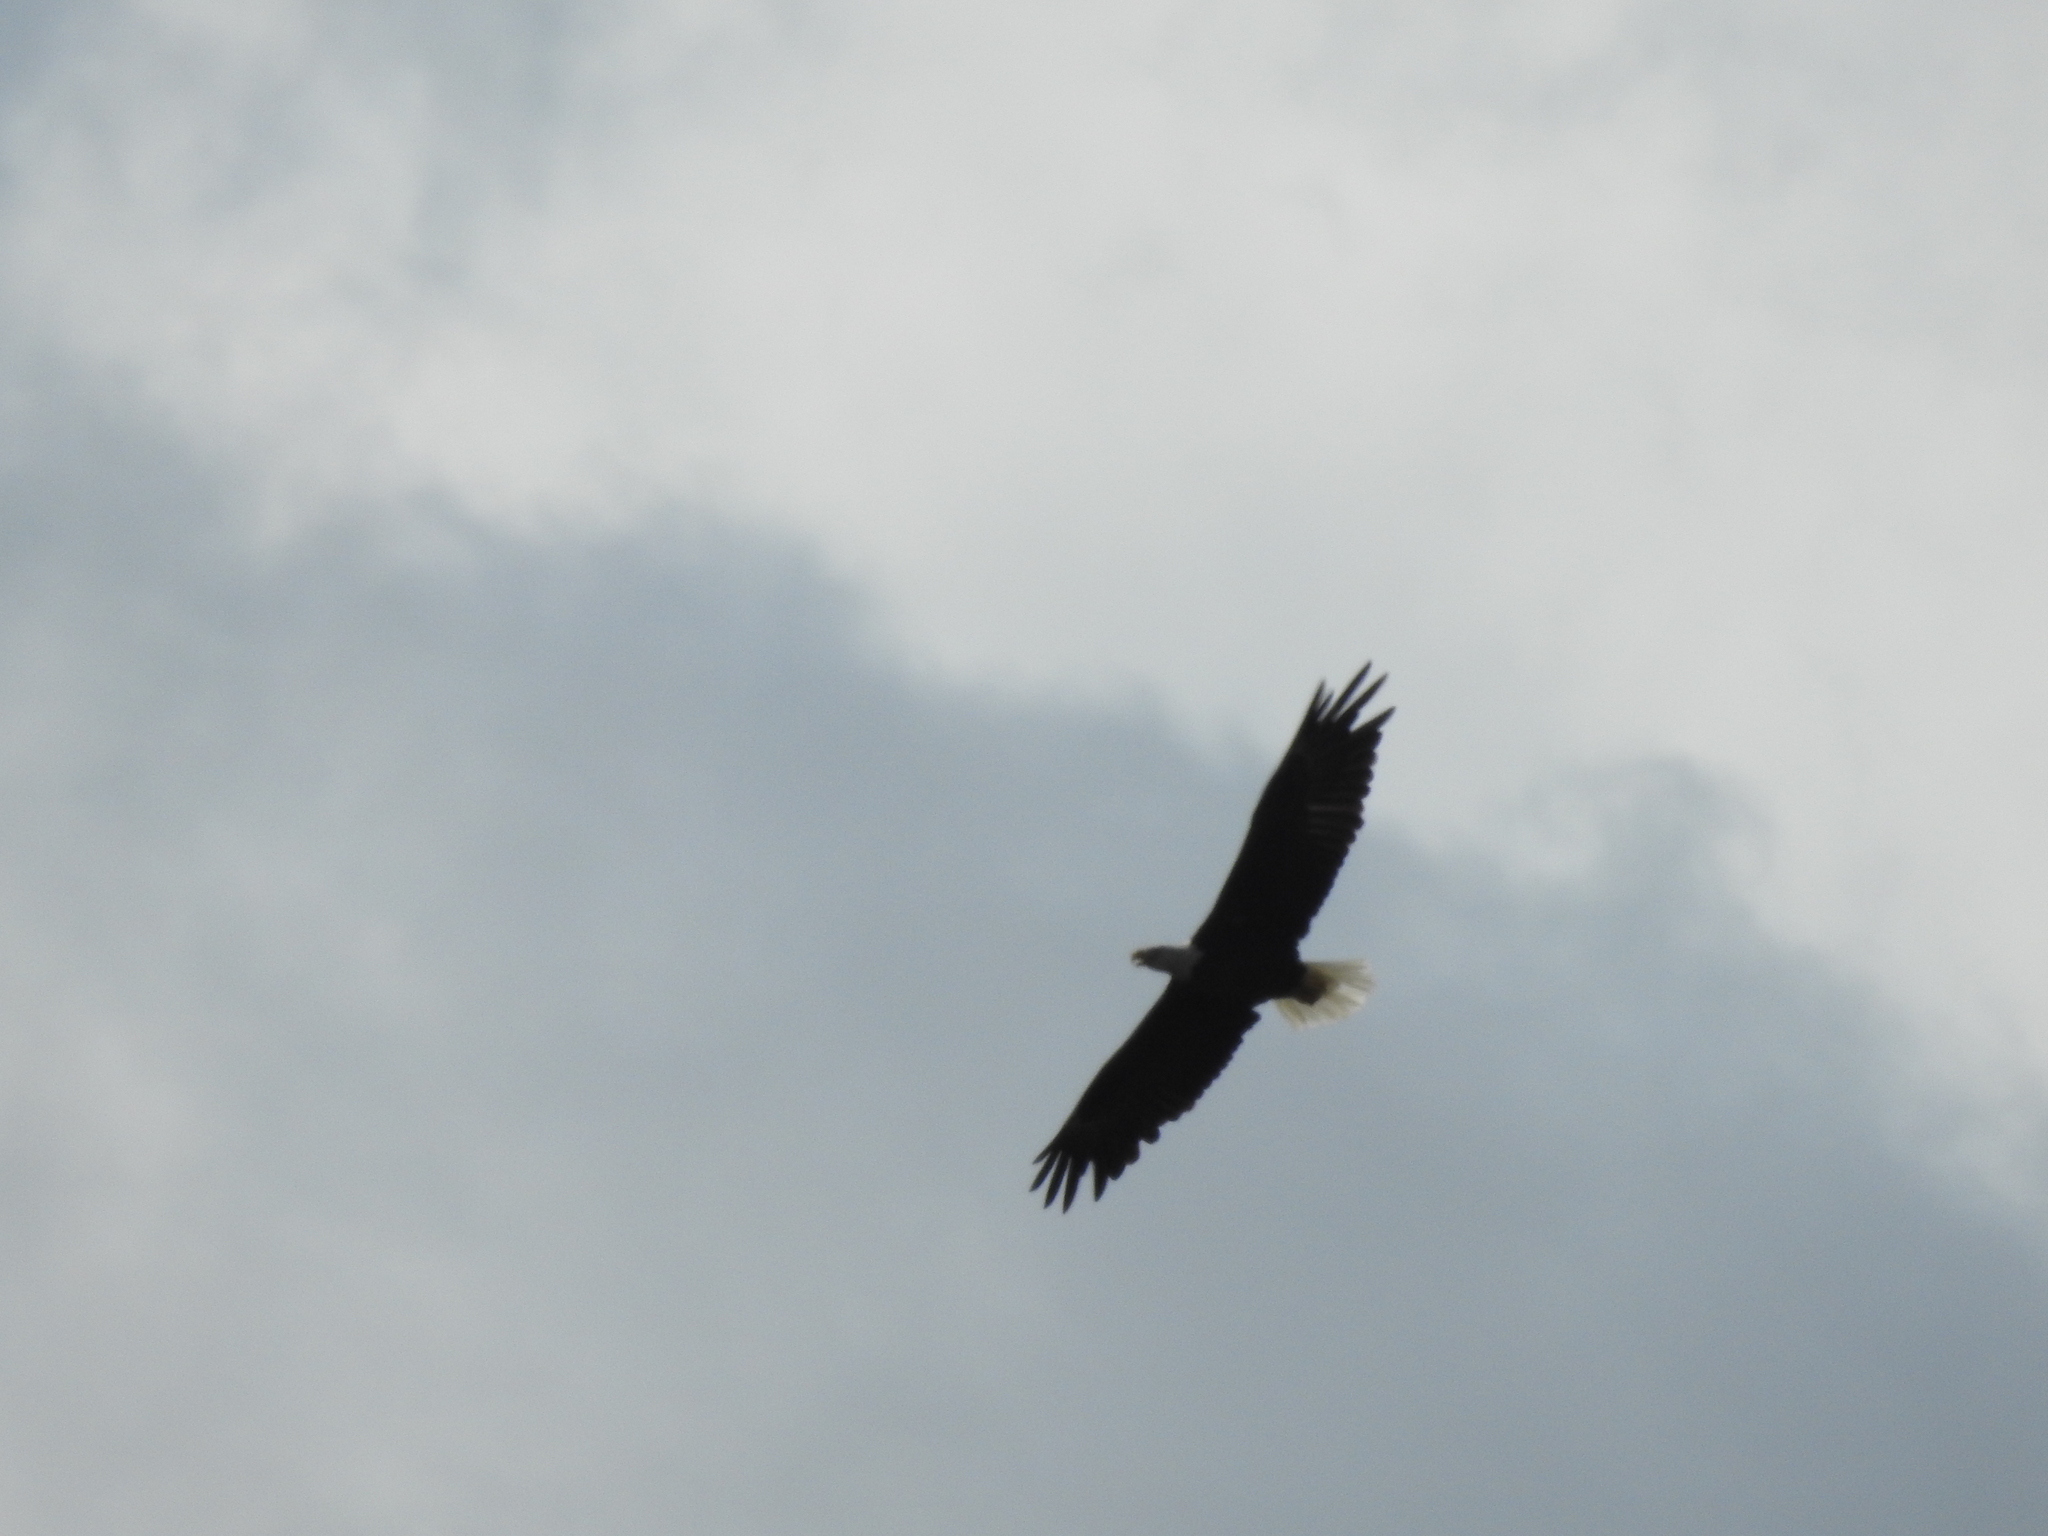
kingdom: Animalia
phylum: Chordata
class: Aves
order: Accipitriformes
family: Accipitridae
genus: Haliaeetus
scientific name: Haliaeetus leucocephalus
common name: Bald eagle
